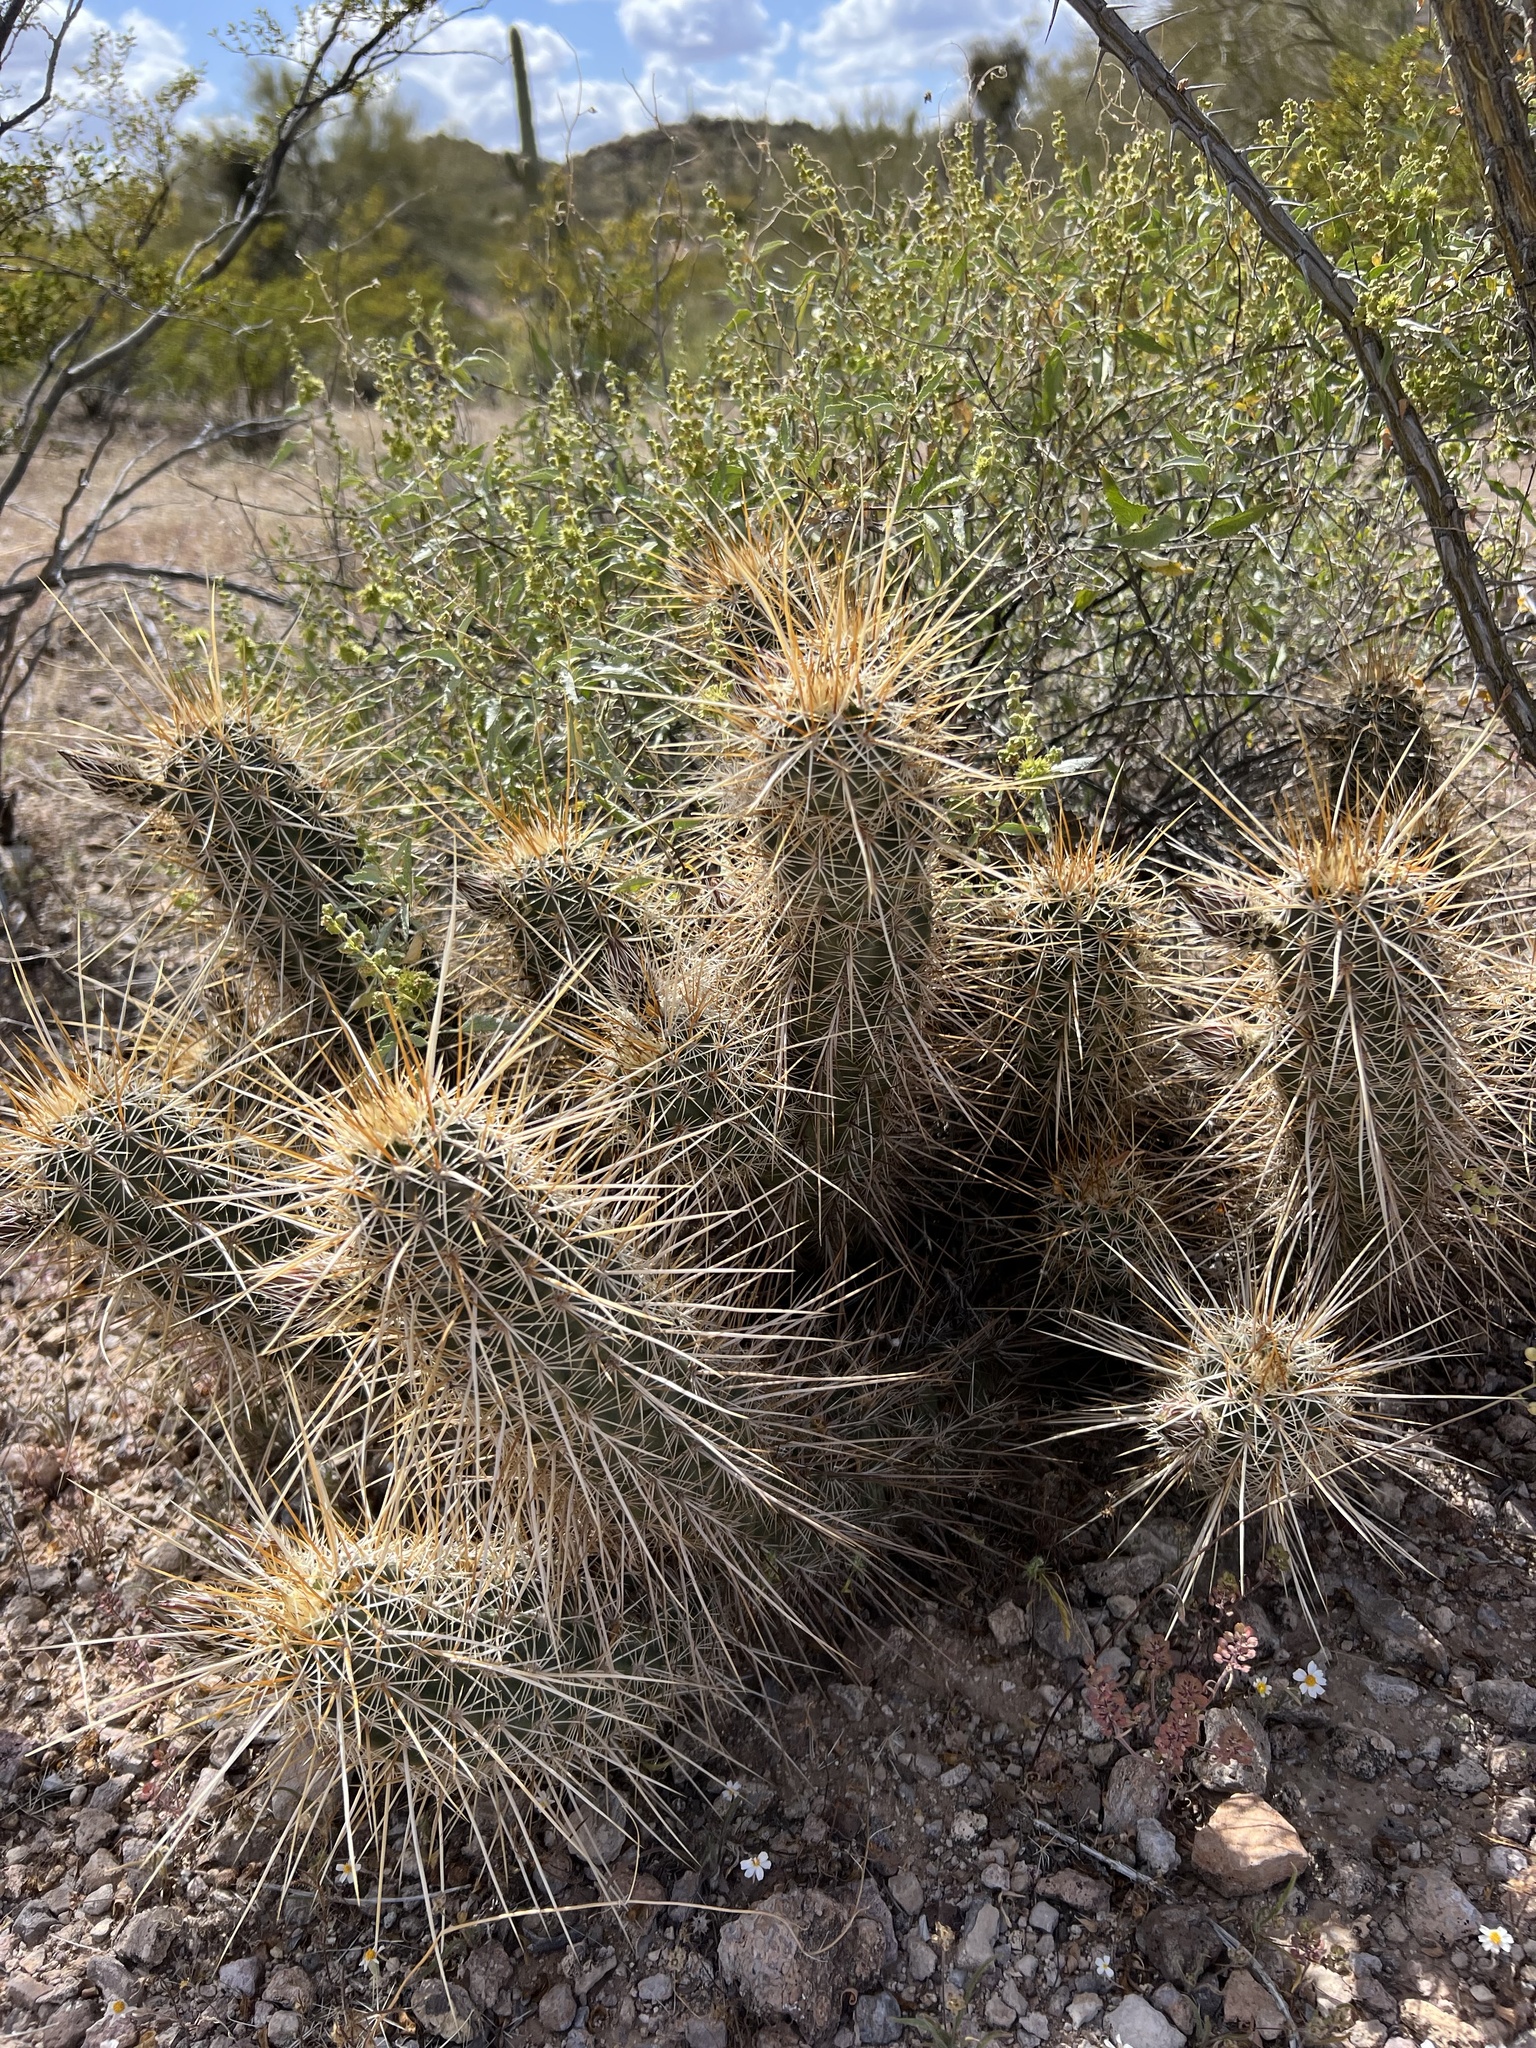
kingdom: Plantae
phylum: Tracheophyta
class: Magnoliopsida
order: Caryophyllales
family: Cactaceae
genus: Echinocereus
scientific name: Echinocereus engelmannii
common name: Engelmann's hedgehog cactus
